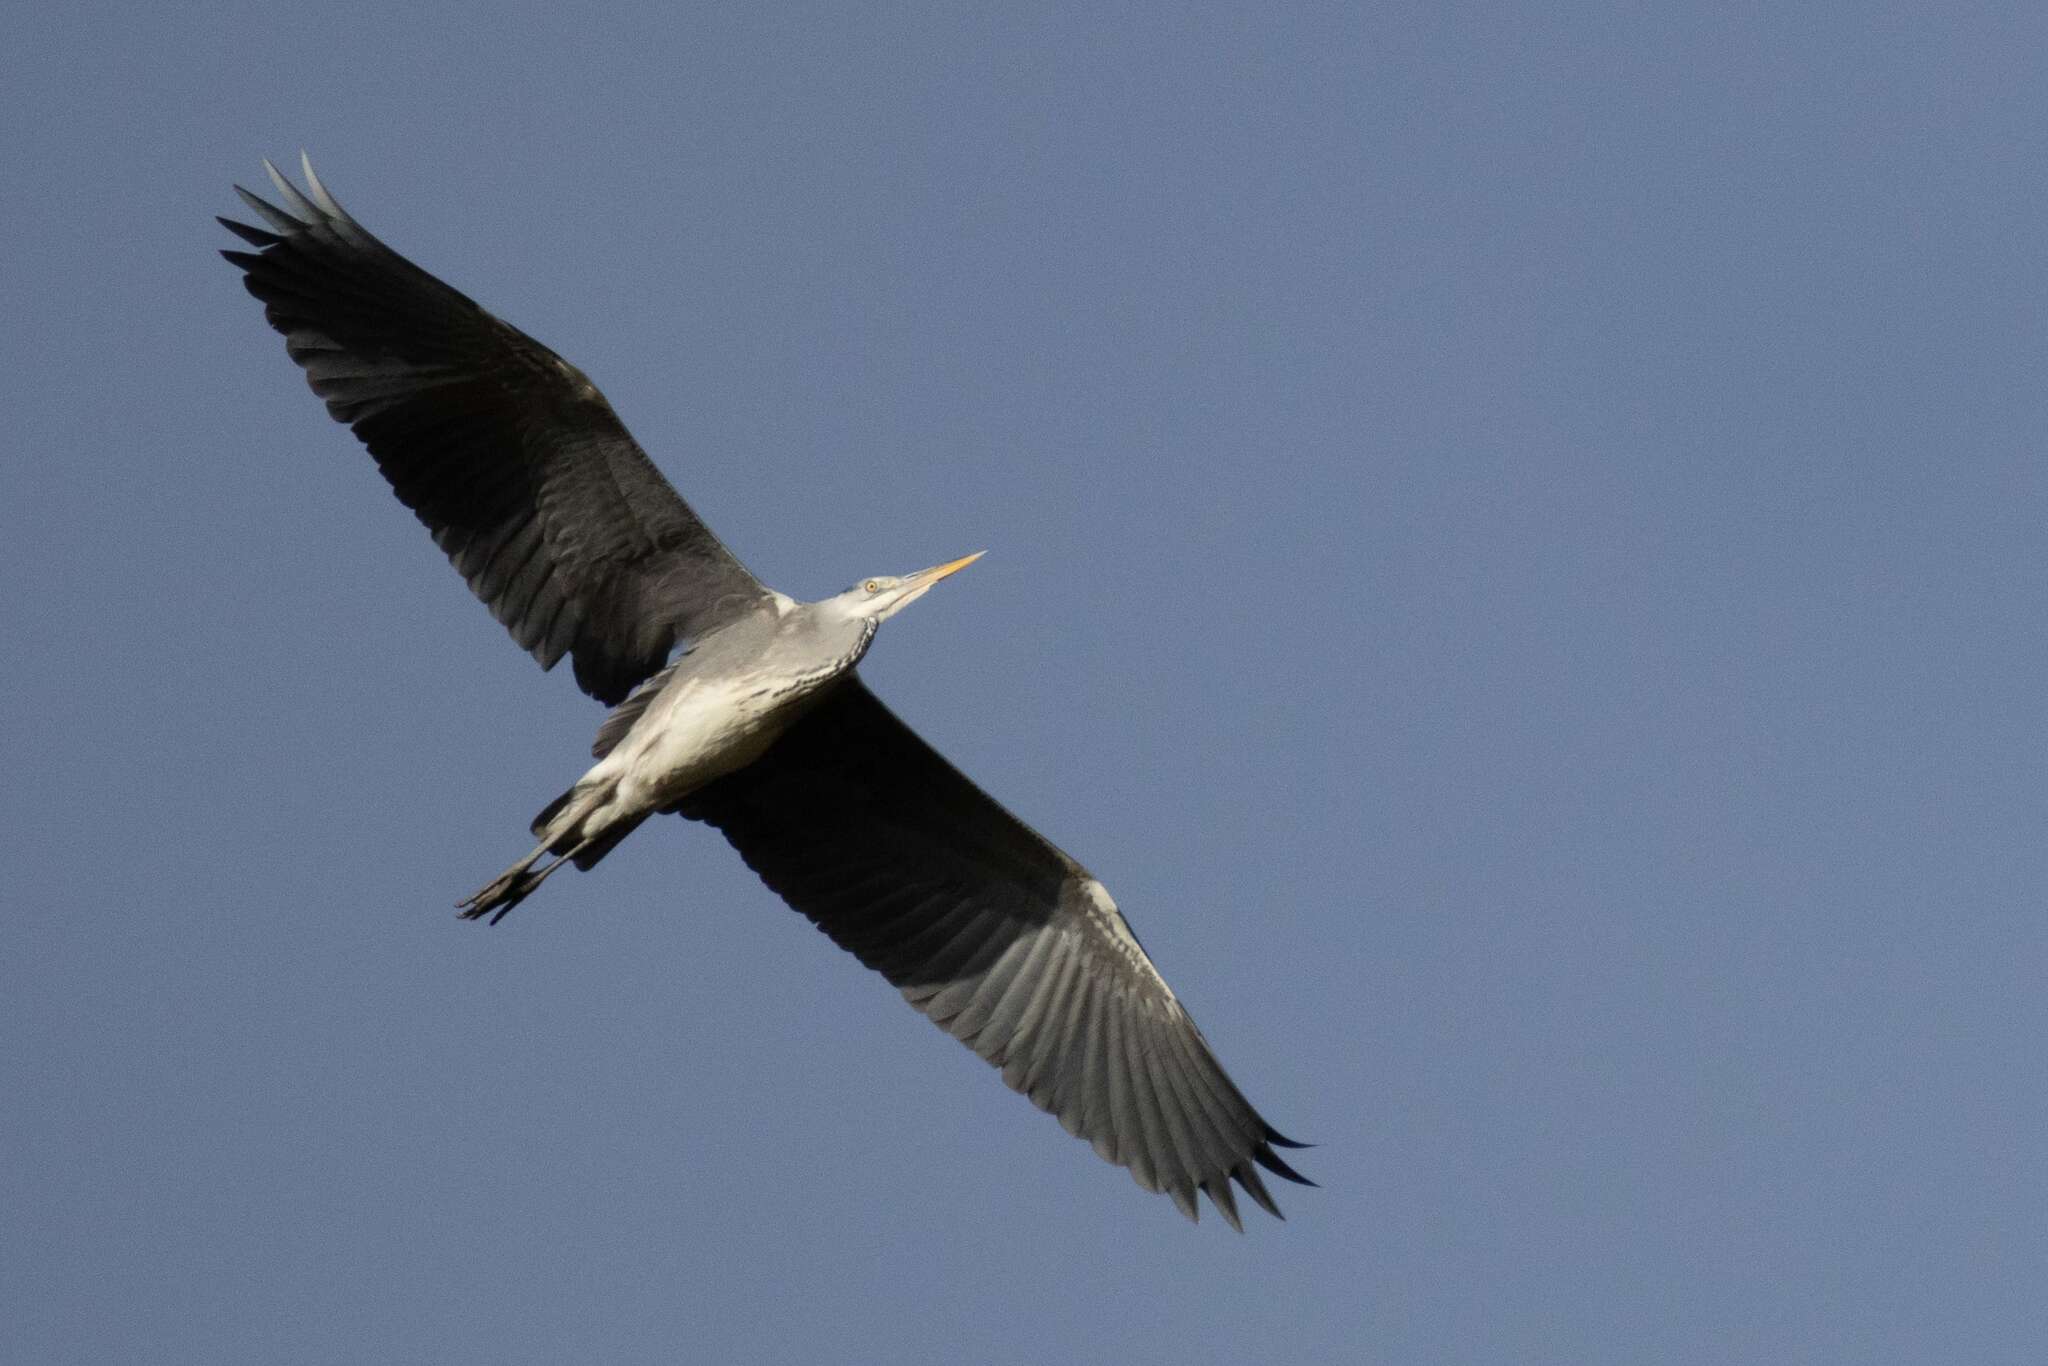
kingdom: Animalia
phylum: Chordata
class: Aves
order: Pelecaniformes
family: Ardeidae
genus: Ardea
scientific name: Ardea cinerea
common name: Grey heron
